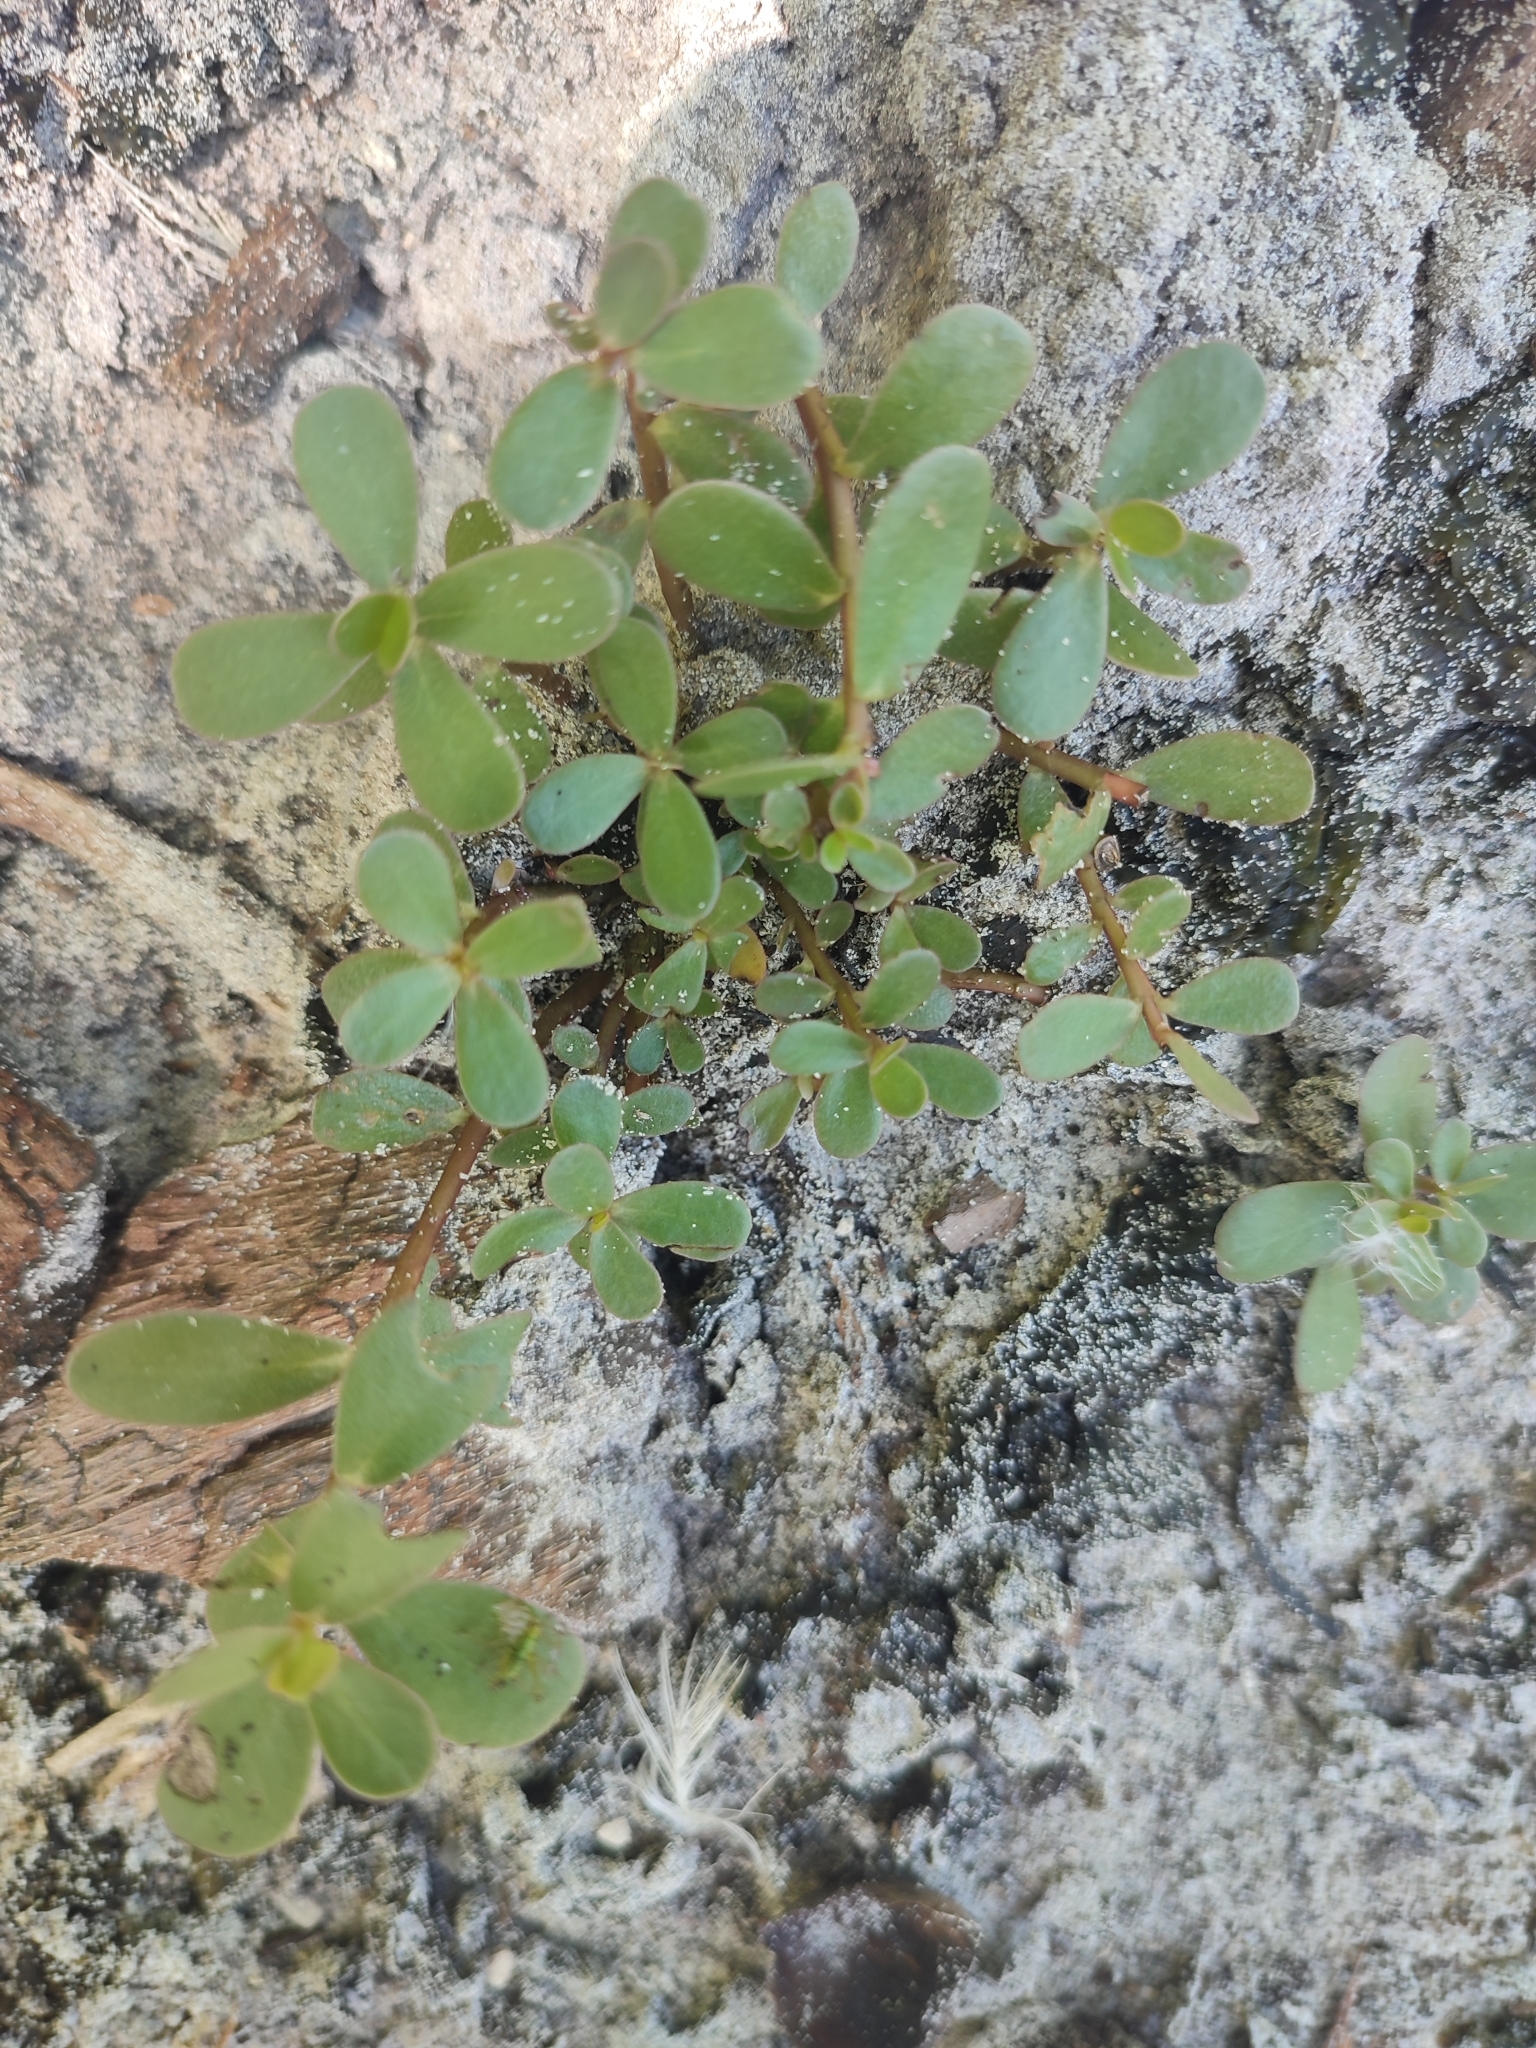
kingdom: Plantae
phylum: Tracheophyta
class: Magnoliopsida
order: Caryophyllales
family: Portulacaceae
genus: Portulaca
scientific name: Portulaca oleracea
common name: Common purslane
